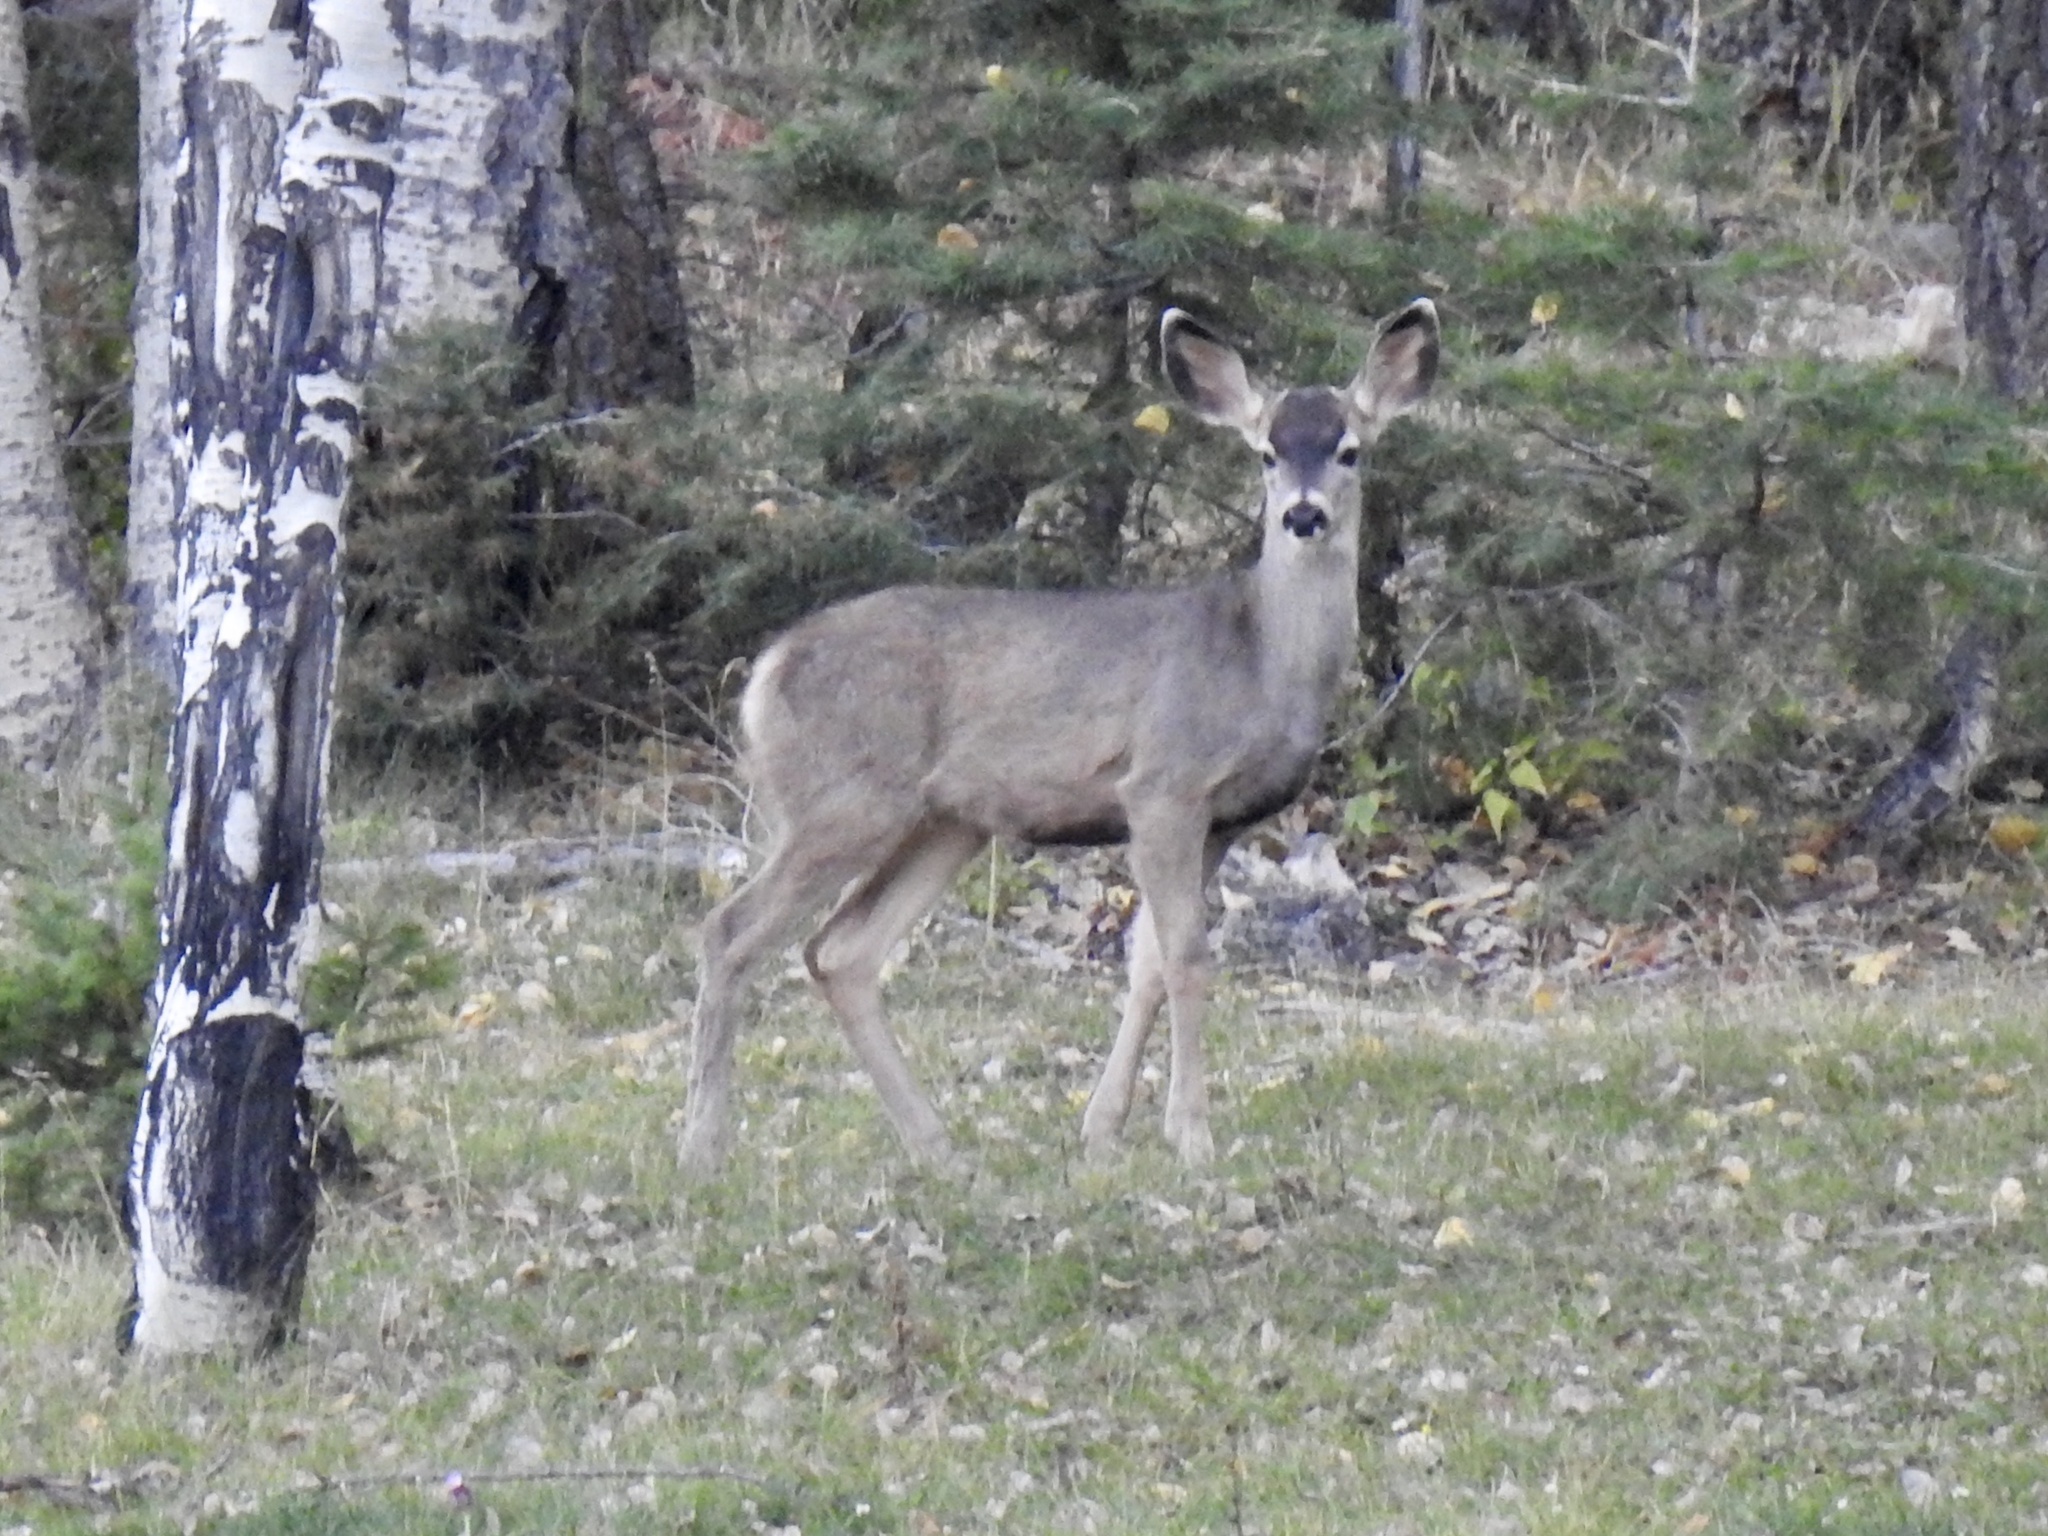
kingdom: Animalia
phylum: Chordata
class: Mammalia
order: Artiodactyla
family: Cervidae
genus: Odocoileus
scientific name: Odocoileus hemionus
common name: Mule deer
